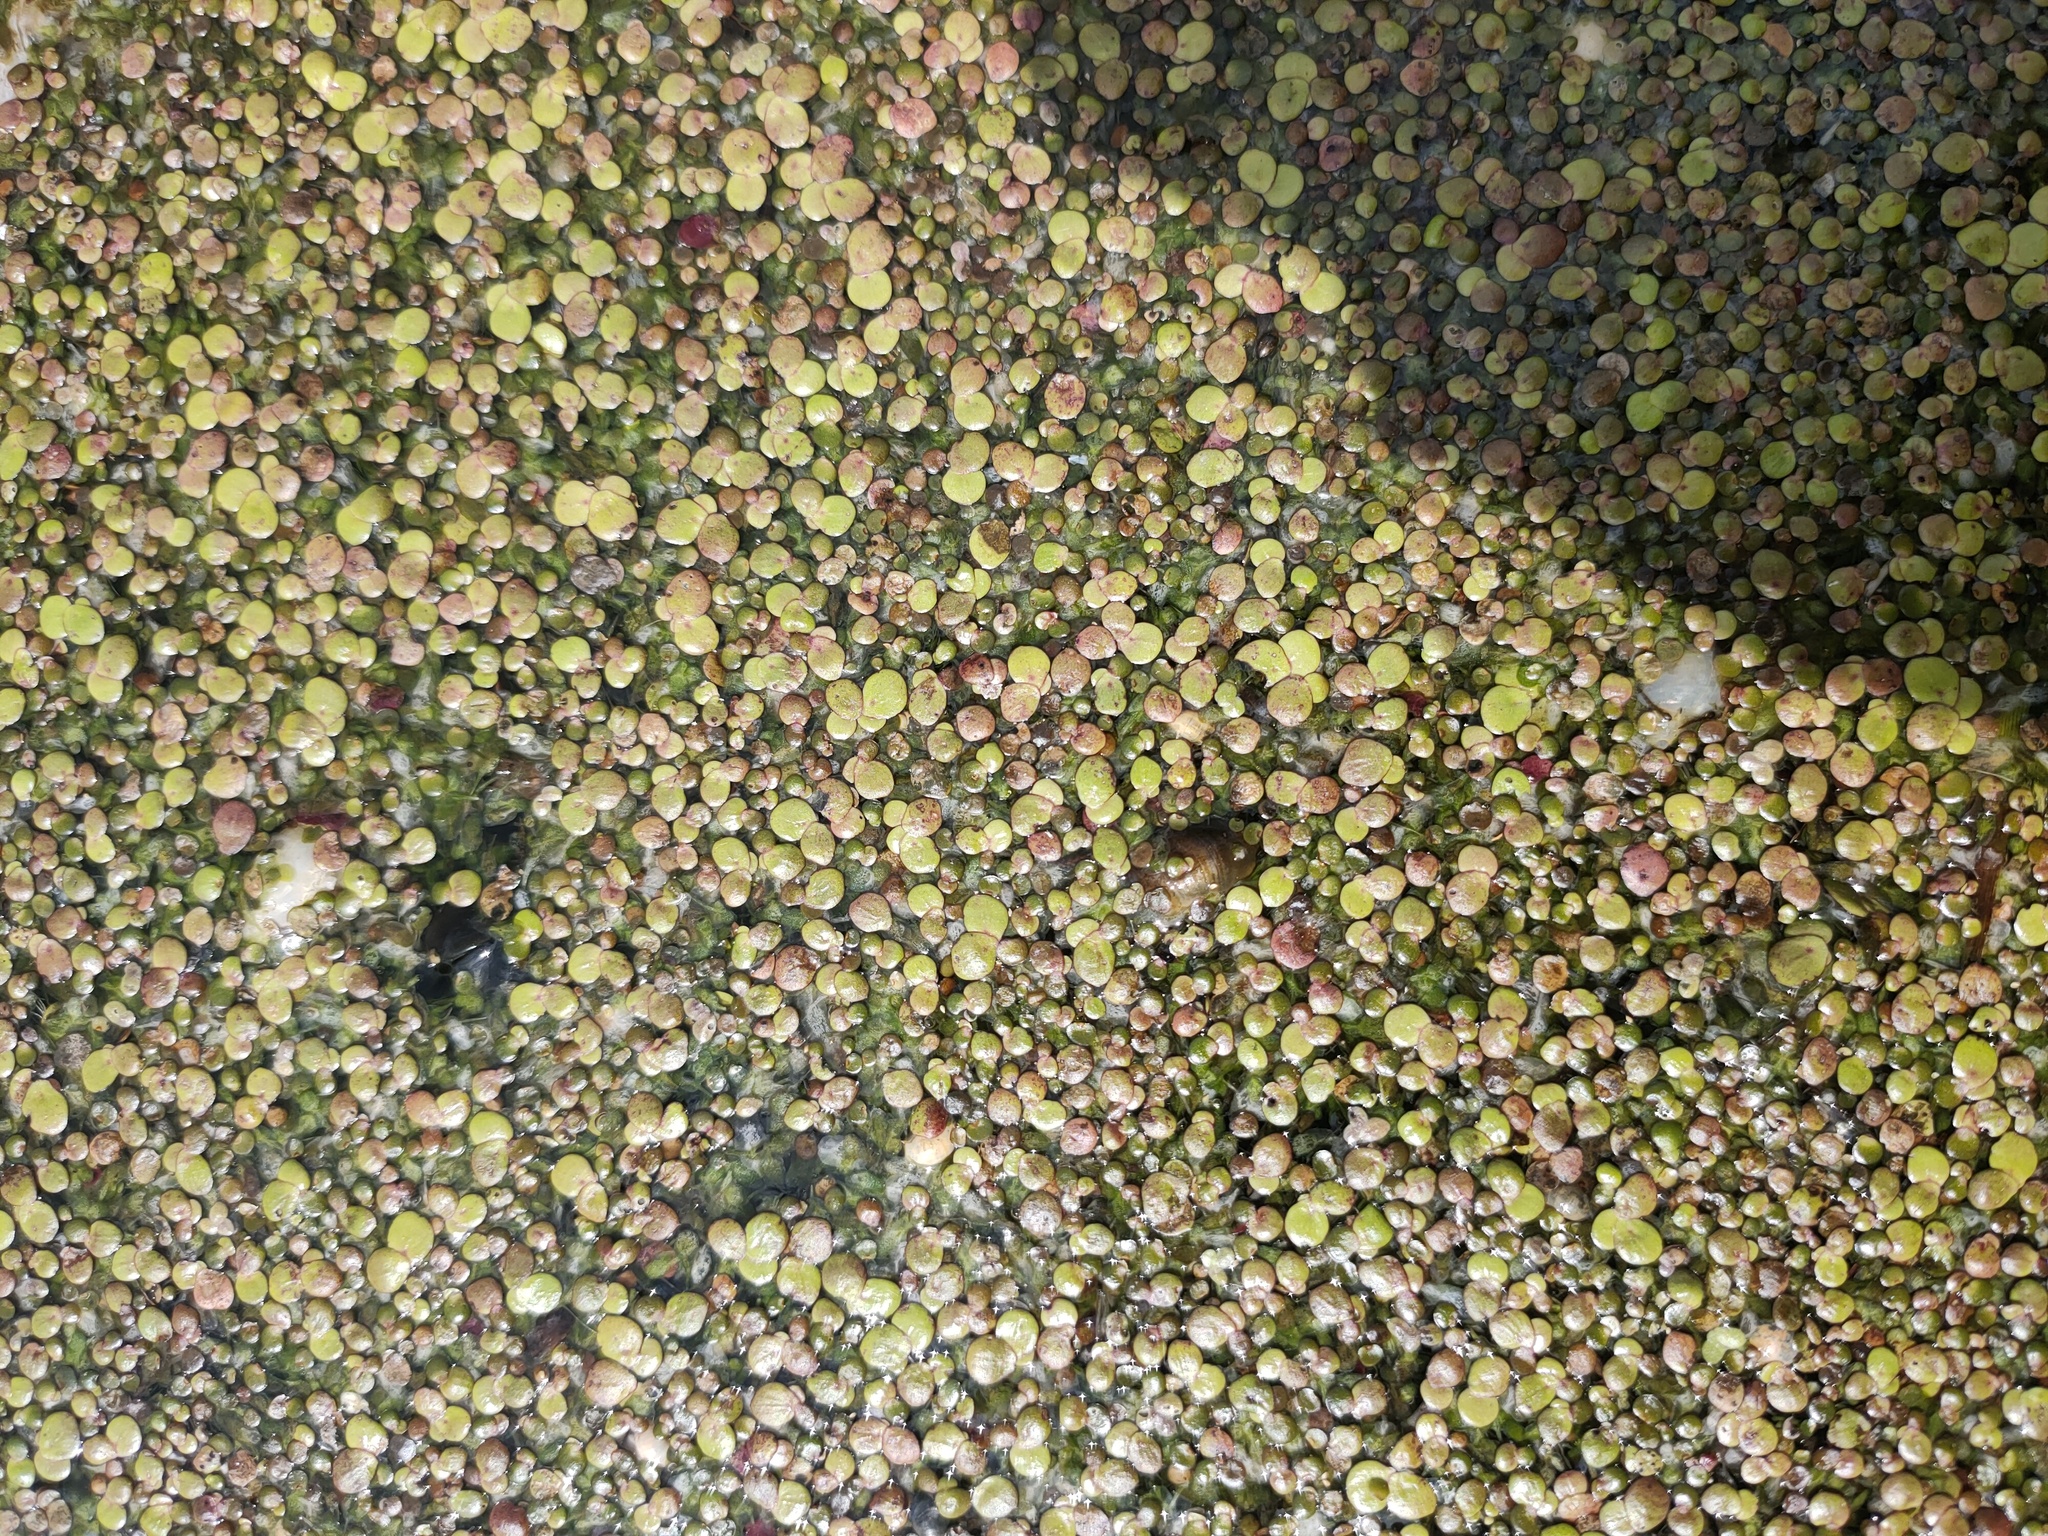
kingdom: Plantae
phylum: Tracheophyta
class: Liliopsida
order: Alismatales
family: Araceae
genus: Spirodela
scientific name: Spirodela polyrhiza
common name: Great duckweed
